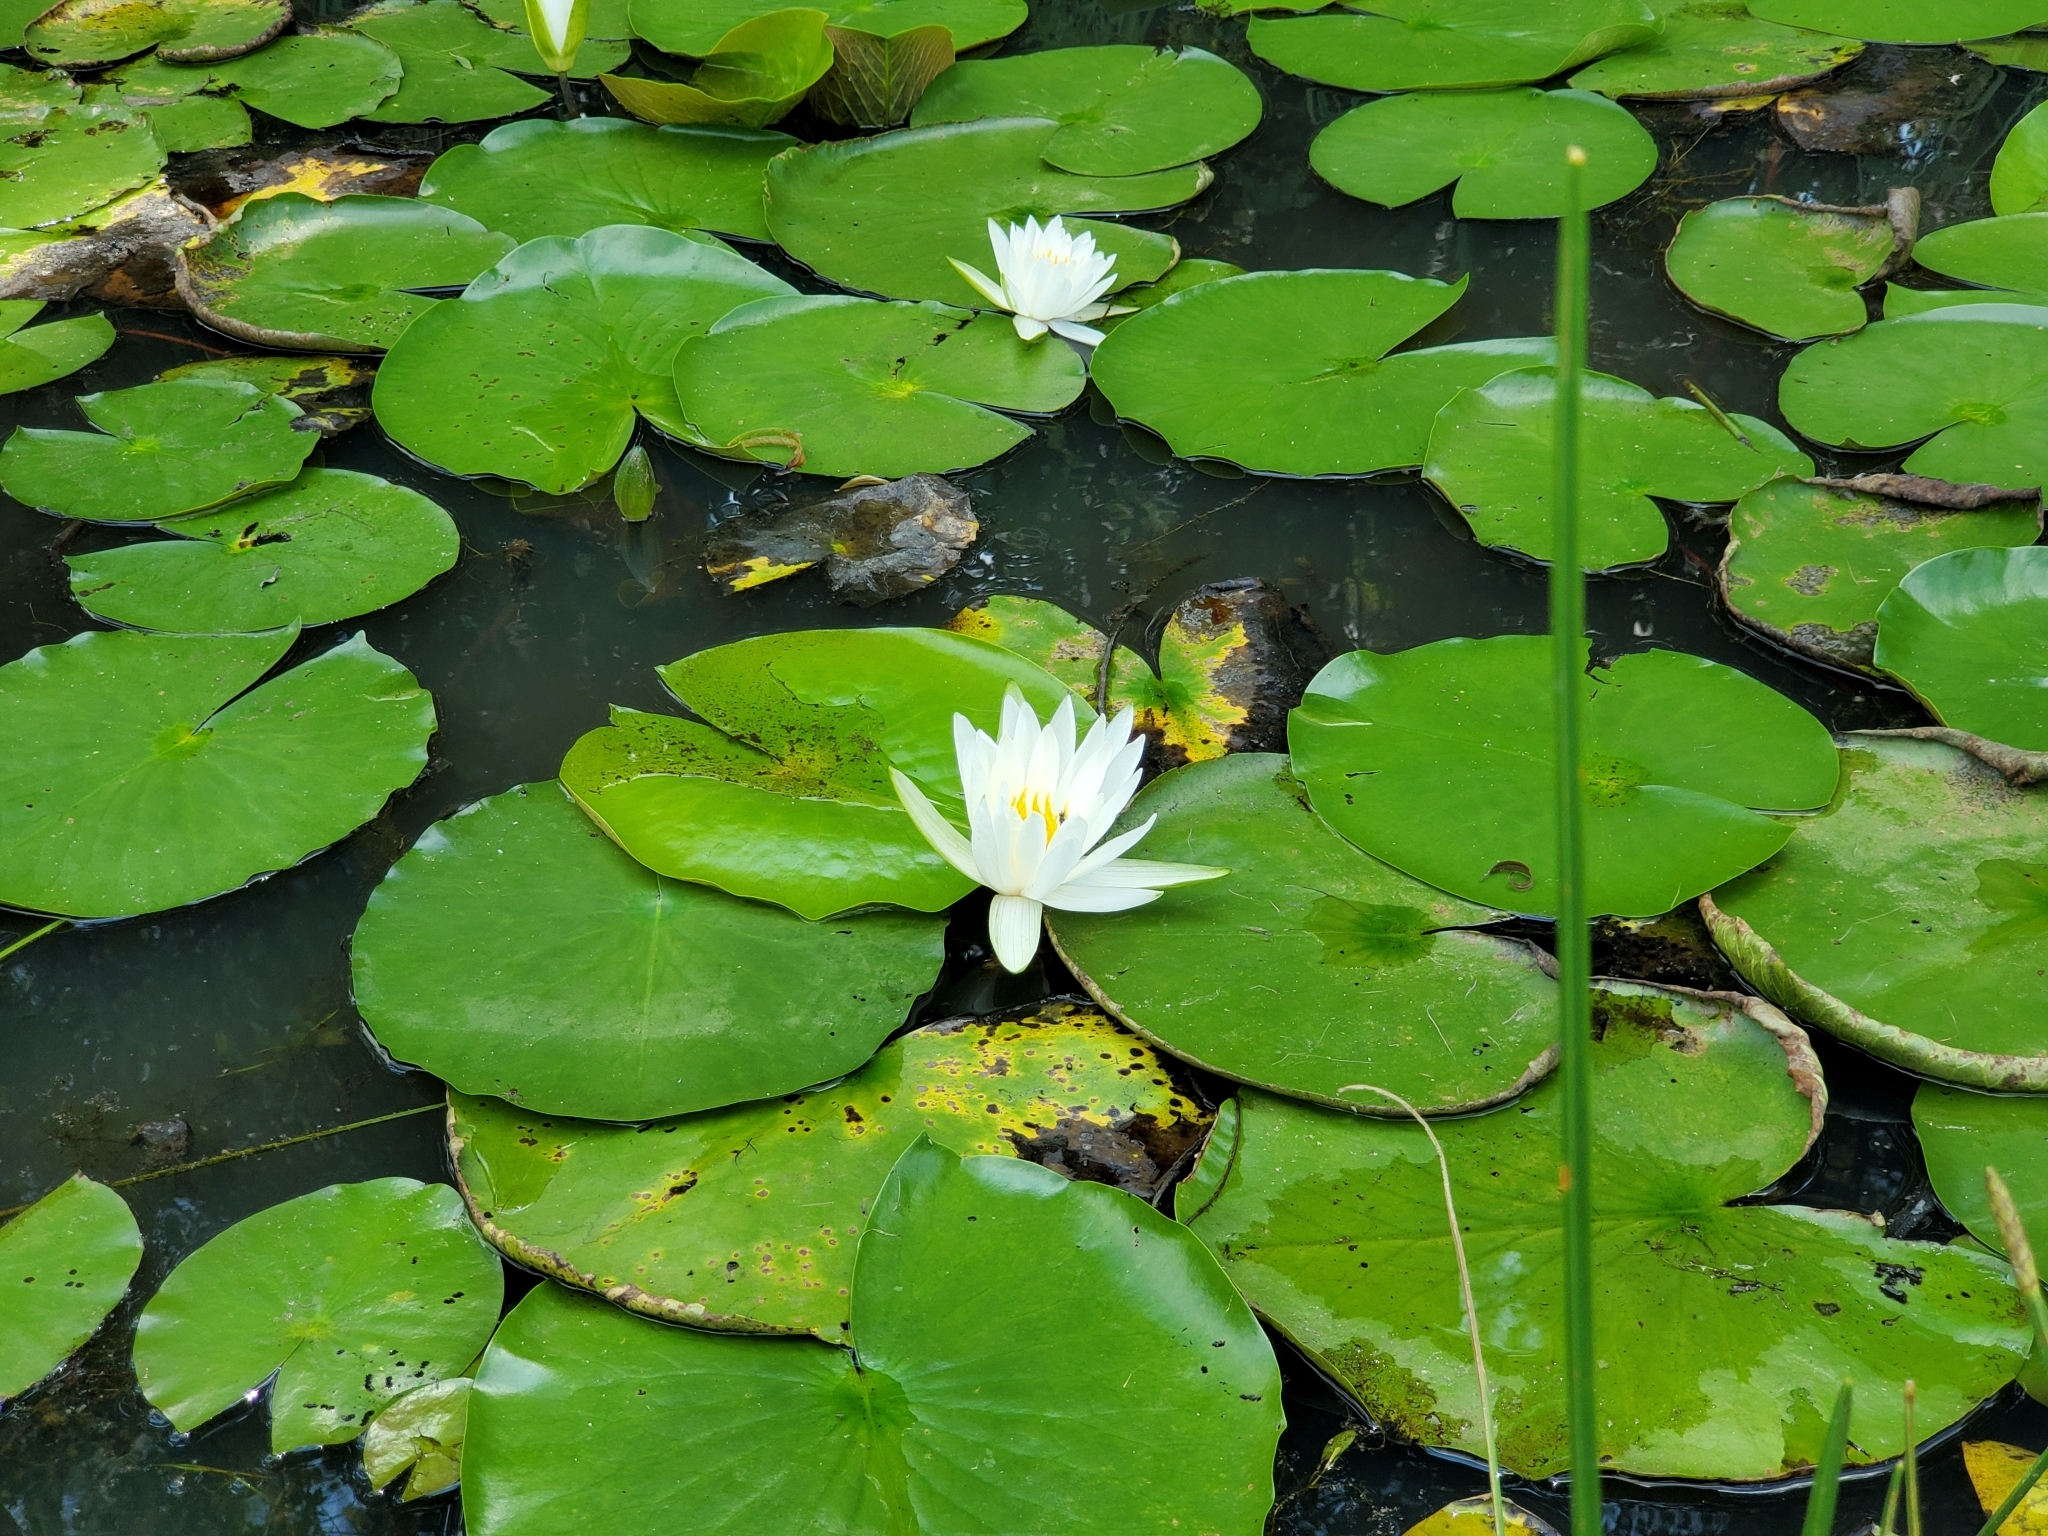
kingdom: Plantae
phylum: Tracheophyta
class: Magnoliopsida
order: Nymphaeales
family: Nymphaeaceae
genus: Nymphaea
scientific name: Nymphaea odorata
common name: Fragrant water-lily
